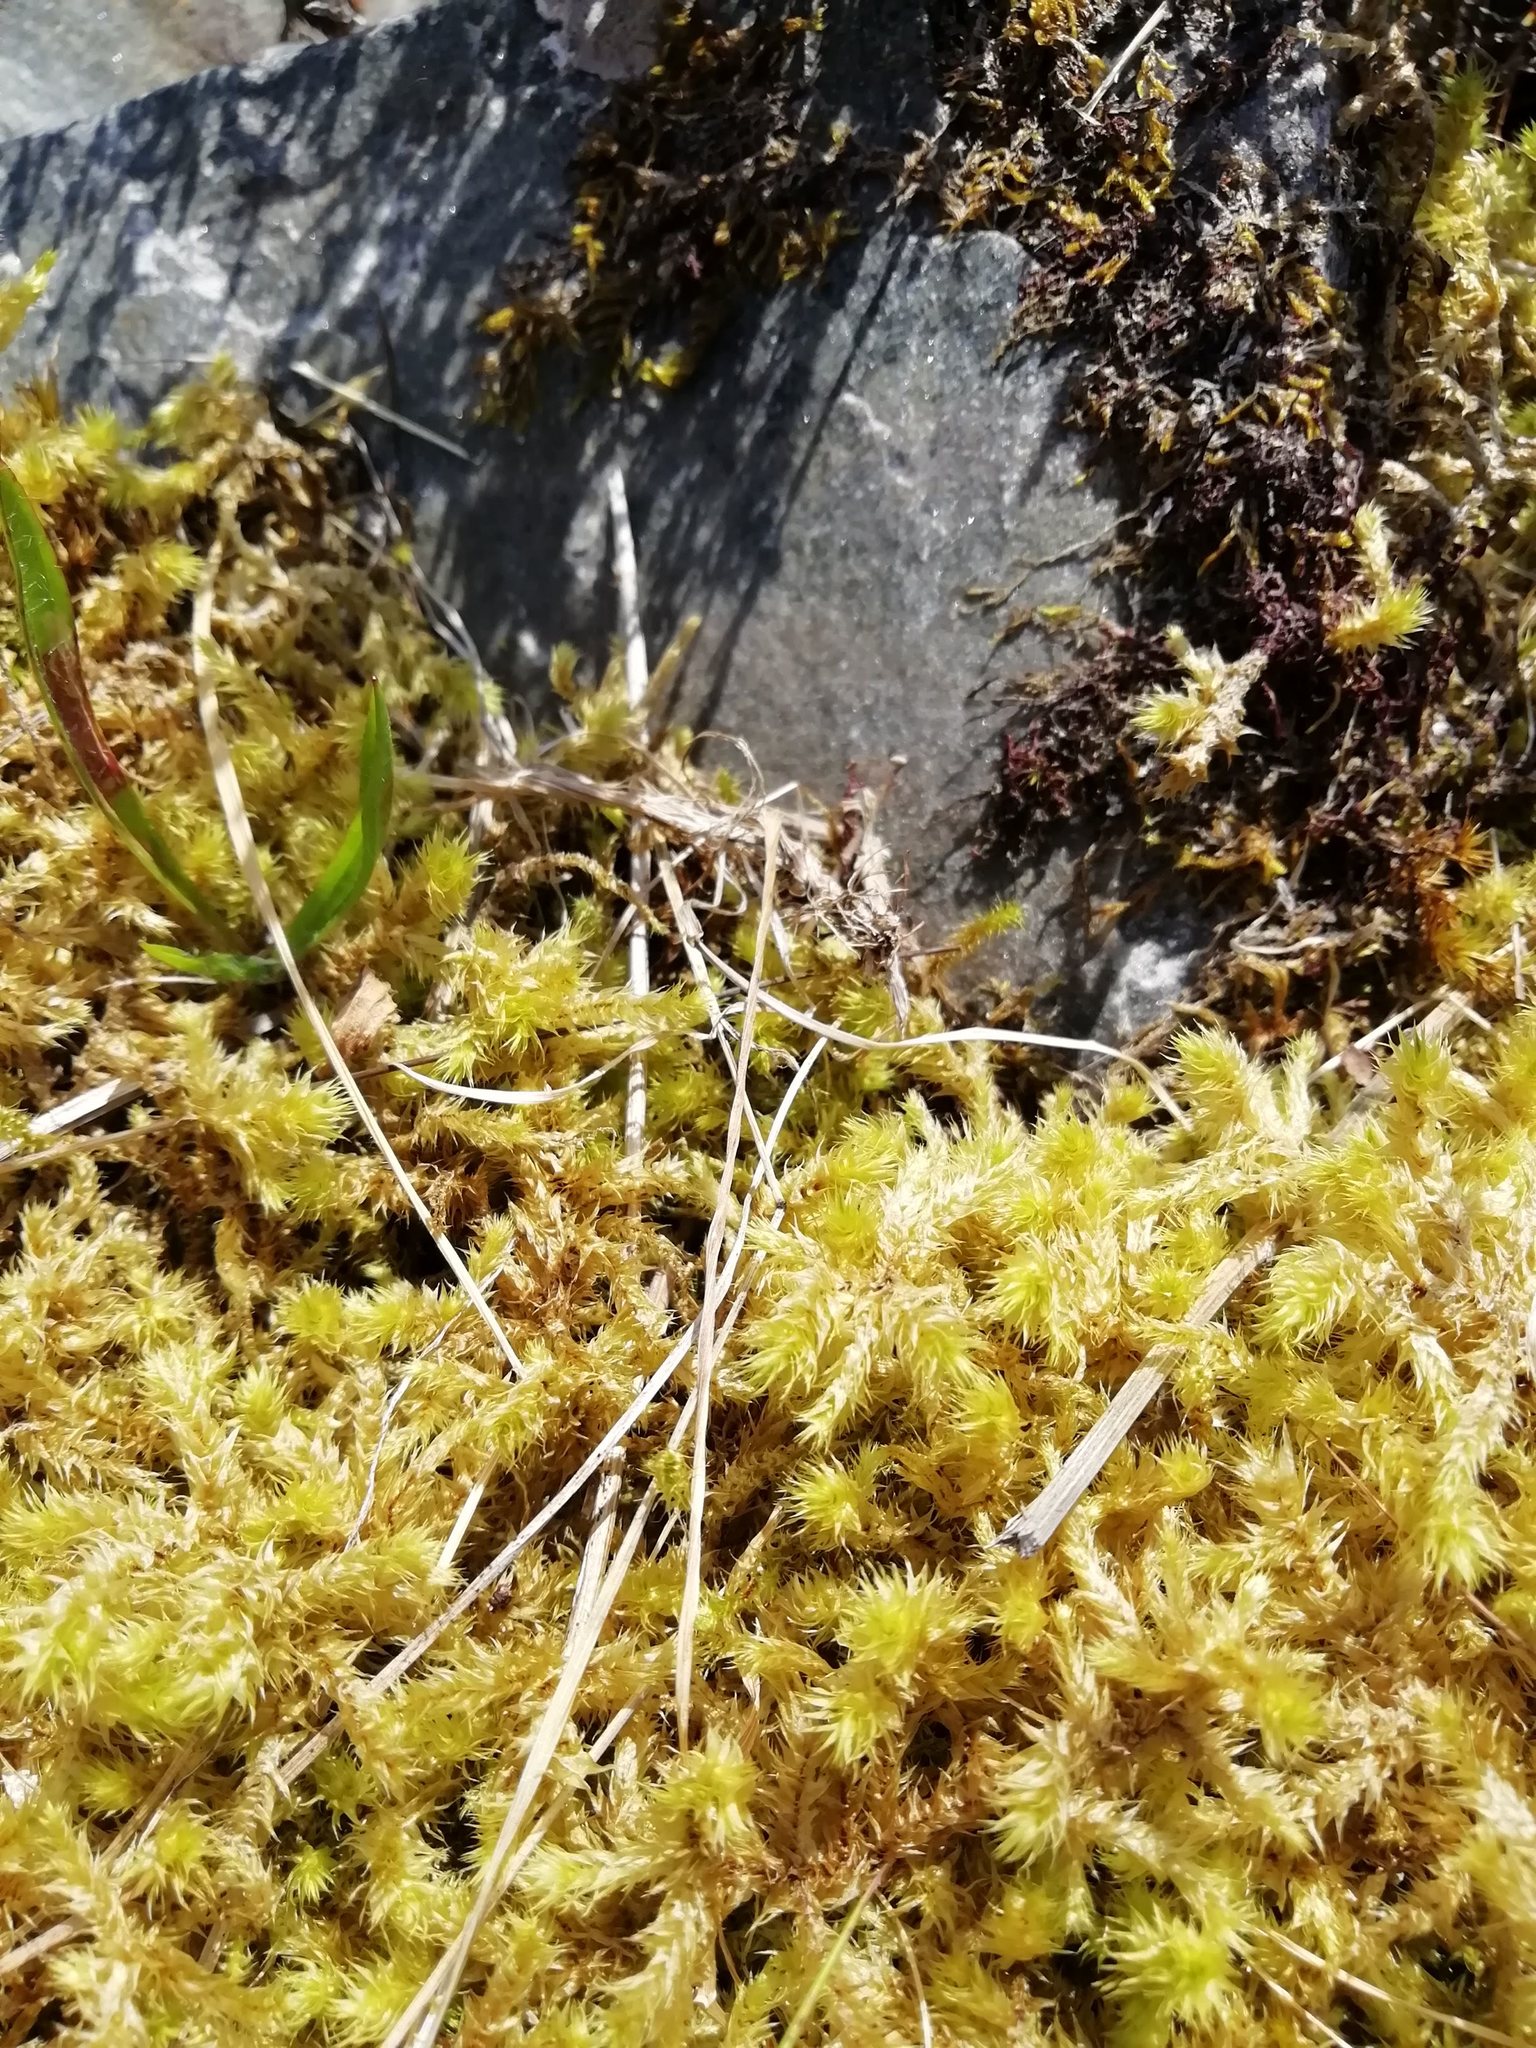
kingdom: Plantae
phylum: Bryophyta
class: Bryopsida
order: Hypnales
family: Hylocomiaceae
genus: Hylocomiadelphus
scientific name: Hylocomiadelphus triquetrus
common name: Rough goose neck moss
